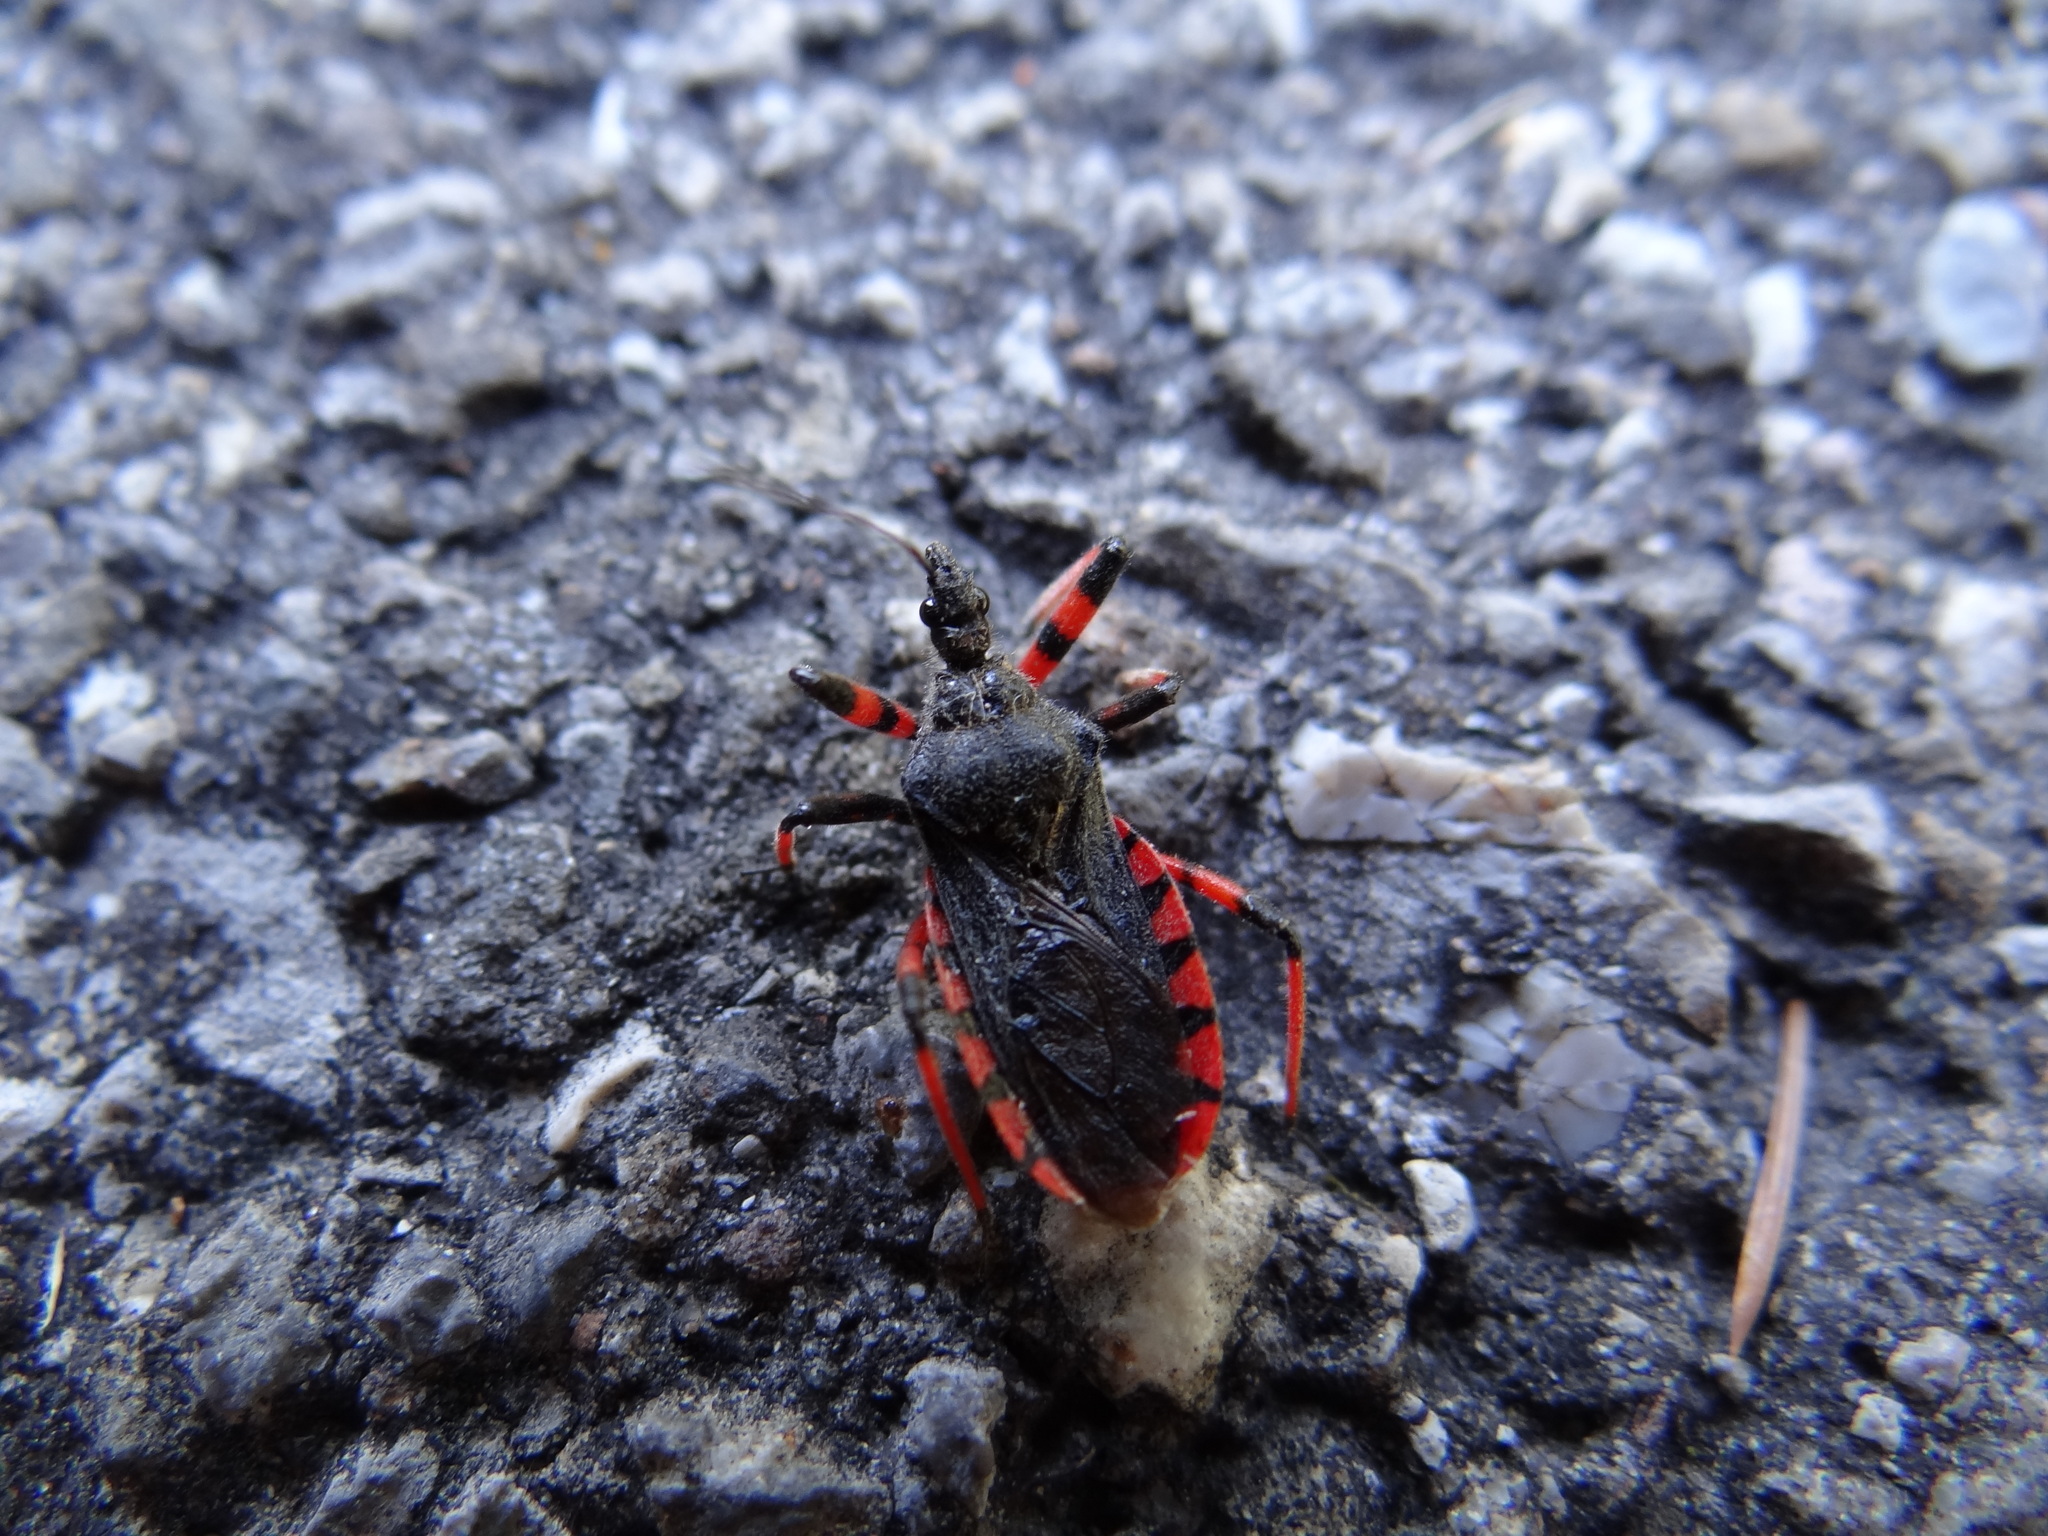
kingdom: Animalia
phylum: Arthropoda
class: Insecta
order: Hemiptera
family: Reduviidae
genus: Rhynocoris
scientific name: Rhynocoris annulatus
